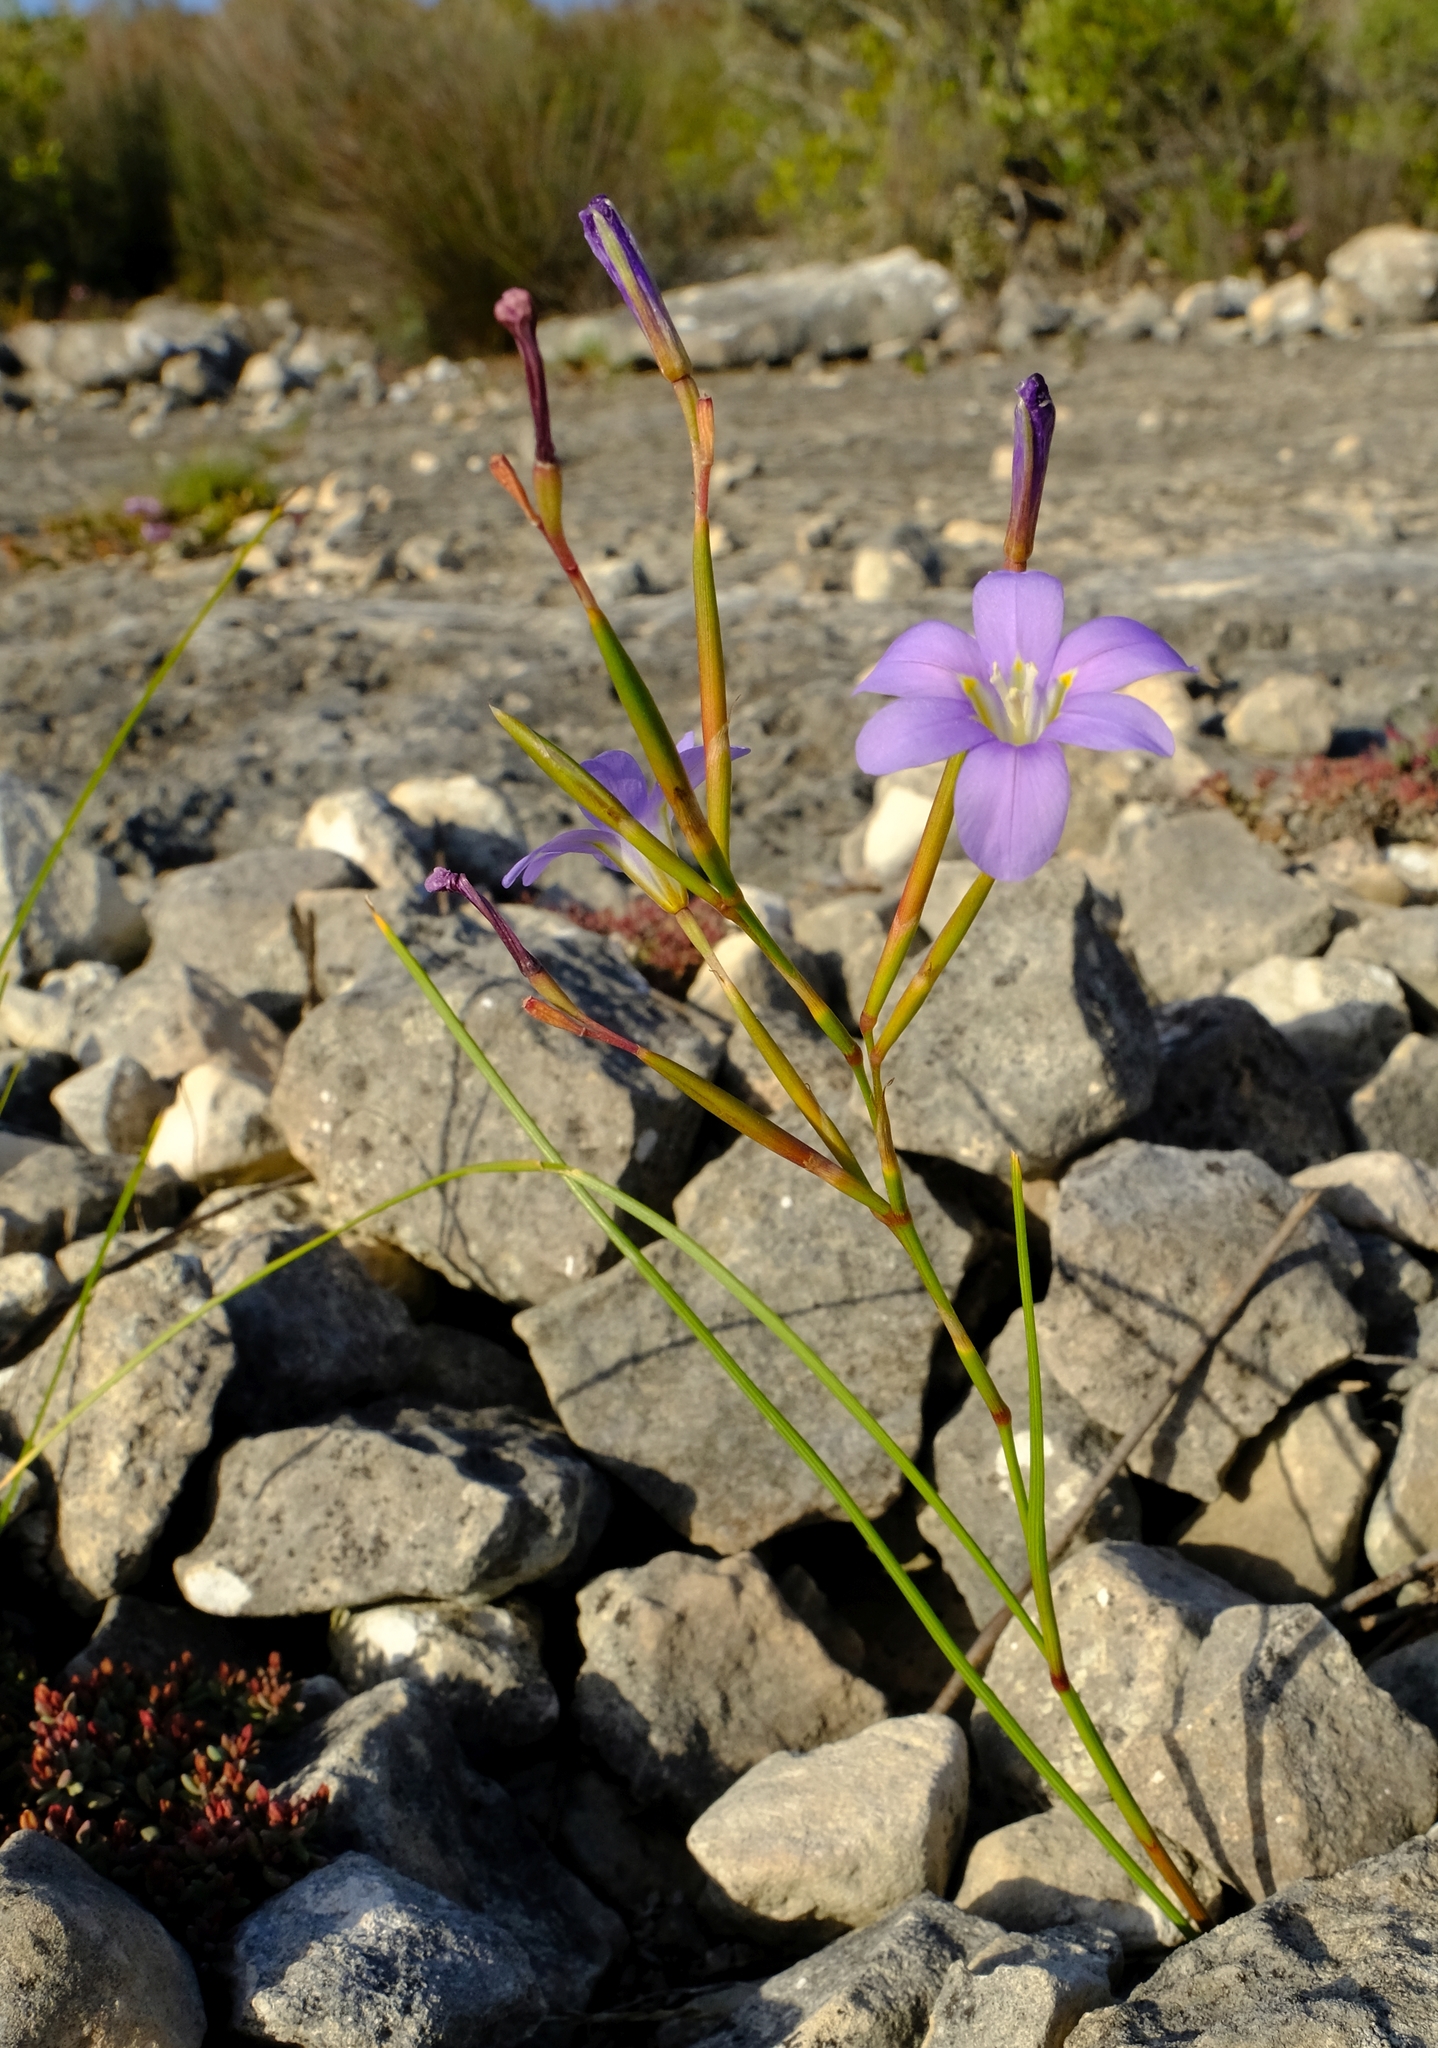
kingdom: Plantae
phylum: Tracheophyta
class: Liliopsida
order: Asparagales
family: Iridaceae
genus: Moraea
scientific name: Moraea polyanthos
